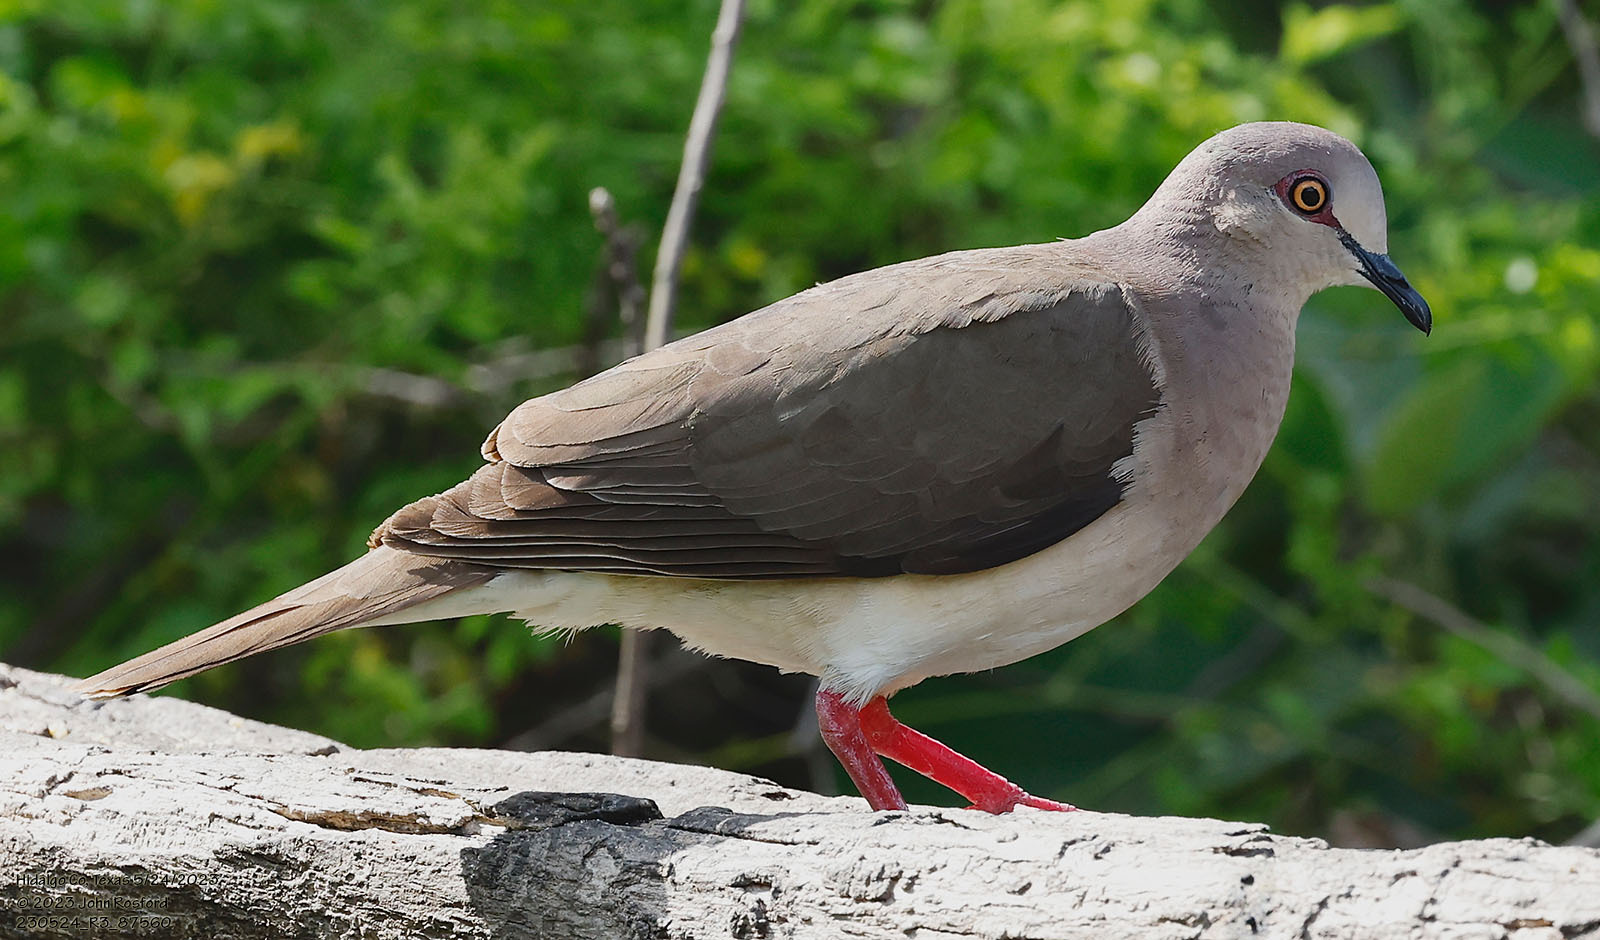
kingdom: Animalia
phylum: Chordata
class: Aves
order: Columbiformes
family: Columbidae
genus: Leptotila
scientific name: Leptotila verreauxi
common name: White-tipped dove
